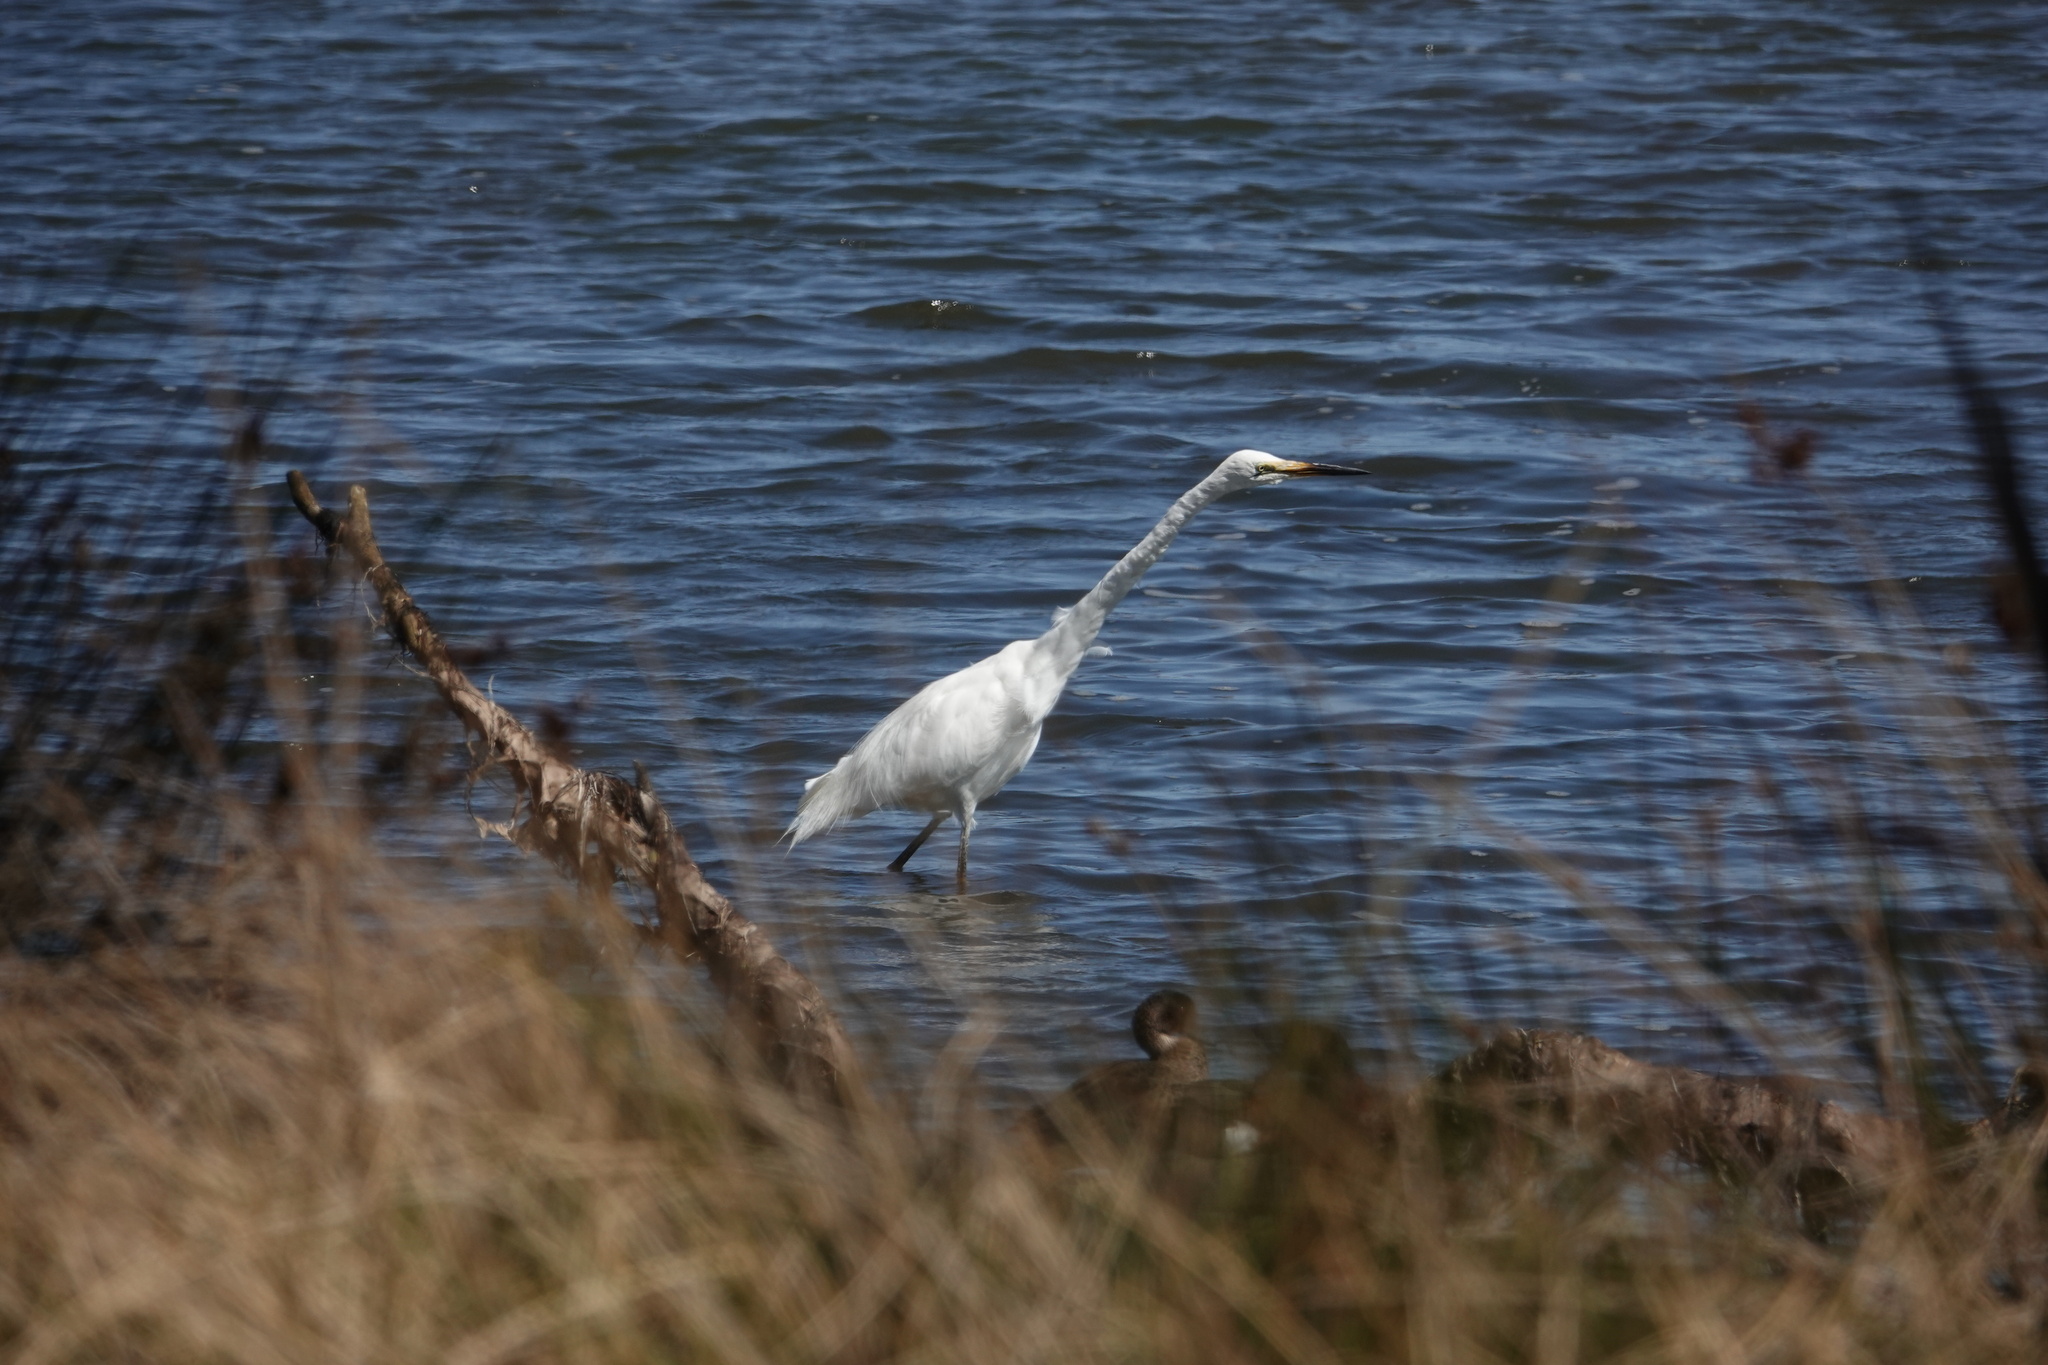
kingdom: Animalia
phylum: Chordata
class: Aves
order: Pelecaniformes
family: Ardeidae
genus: Ardea
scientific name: Ardea alba
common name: Great egret
